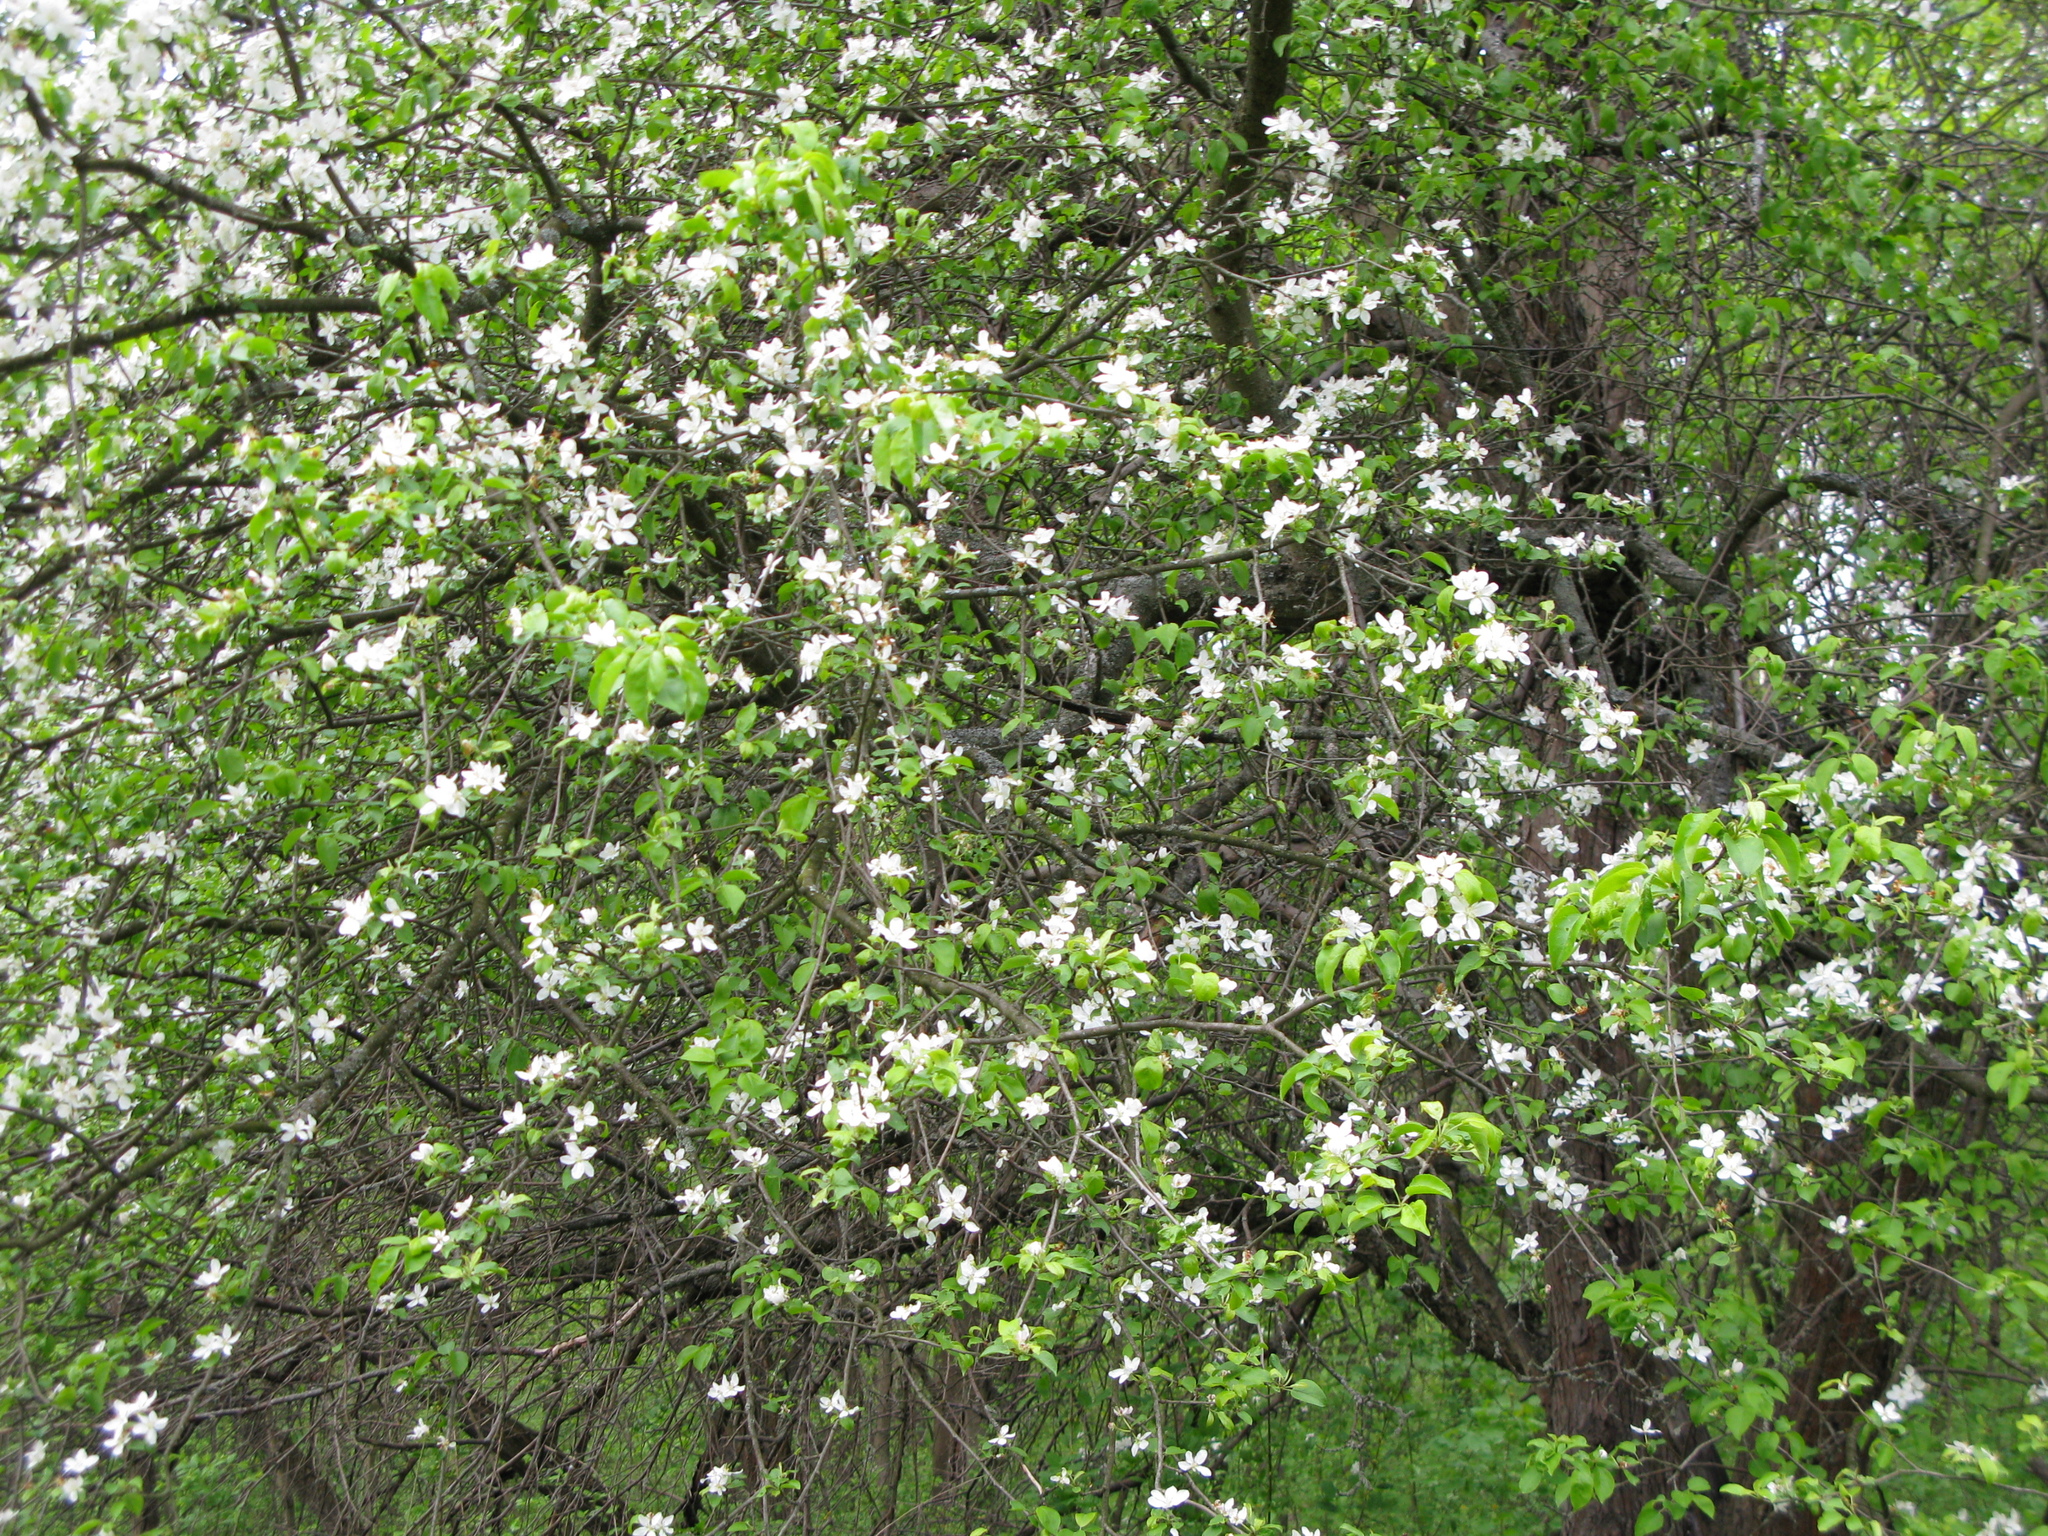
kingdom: Plantae
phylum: Tracheophyta
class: Magnoliopsida
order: Rosales
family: Rosaceae
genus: Malus
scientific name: Malus sylvestris
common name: Crab apple
